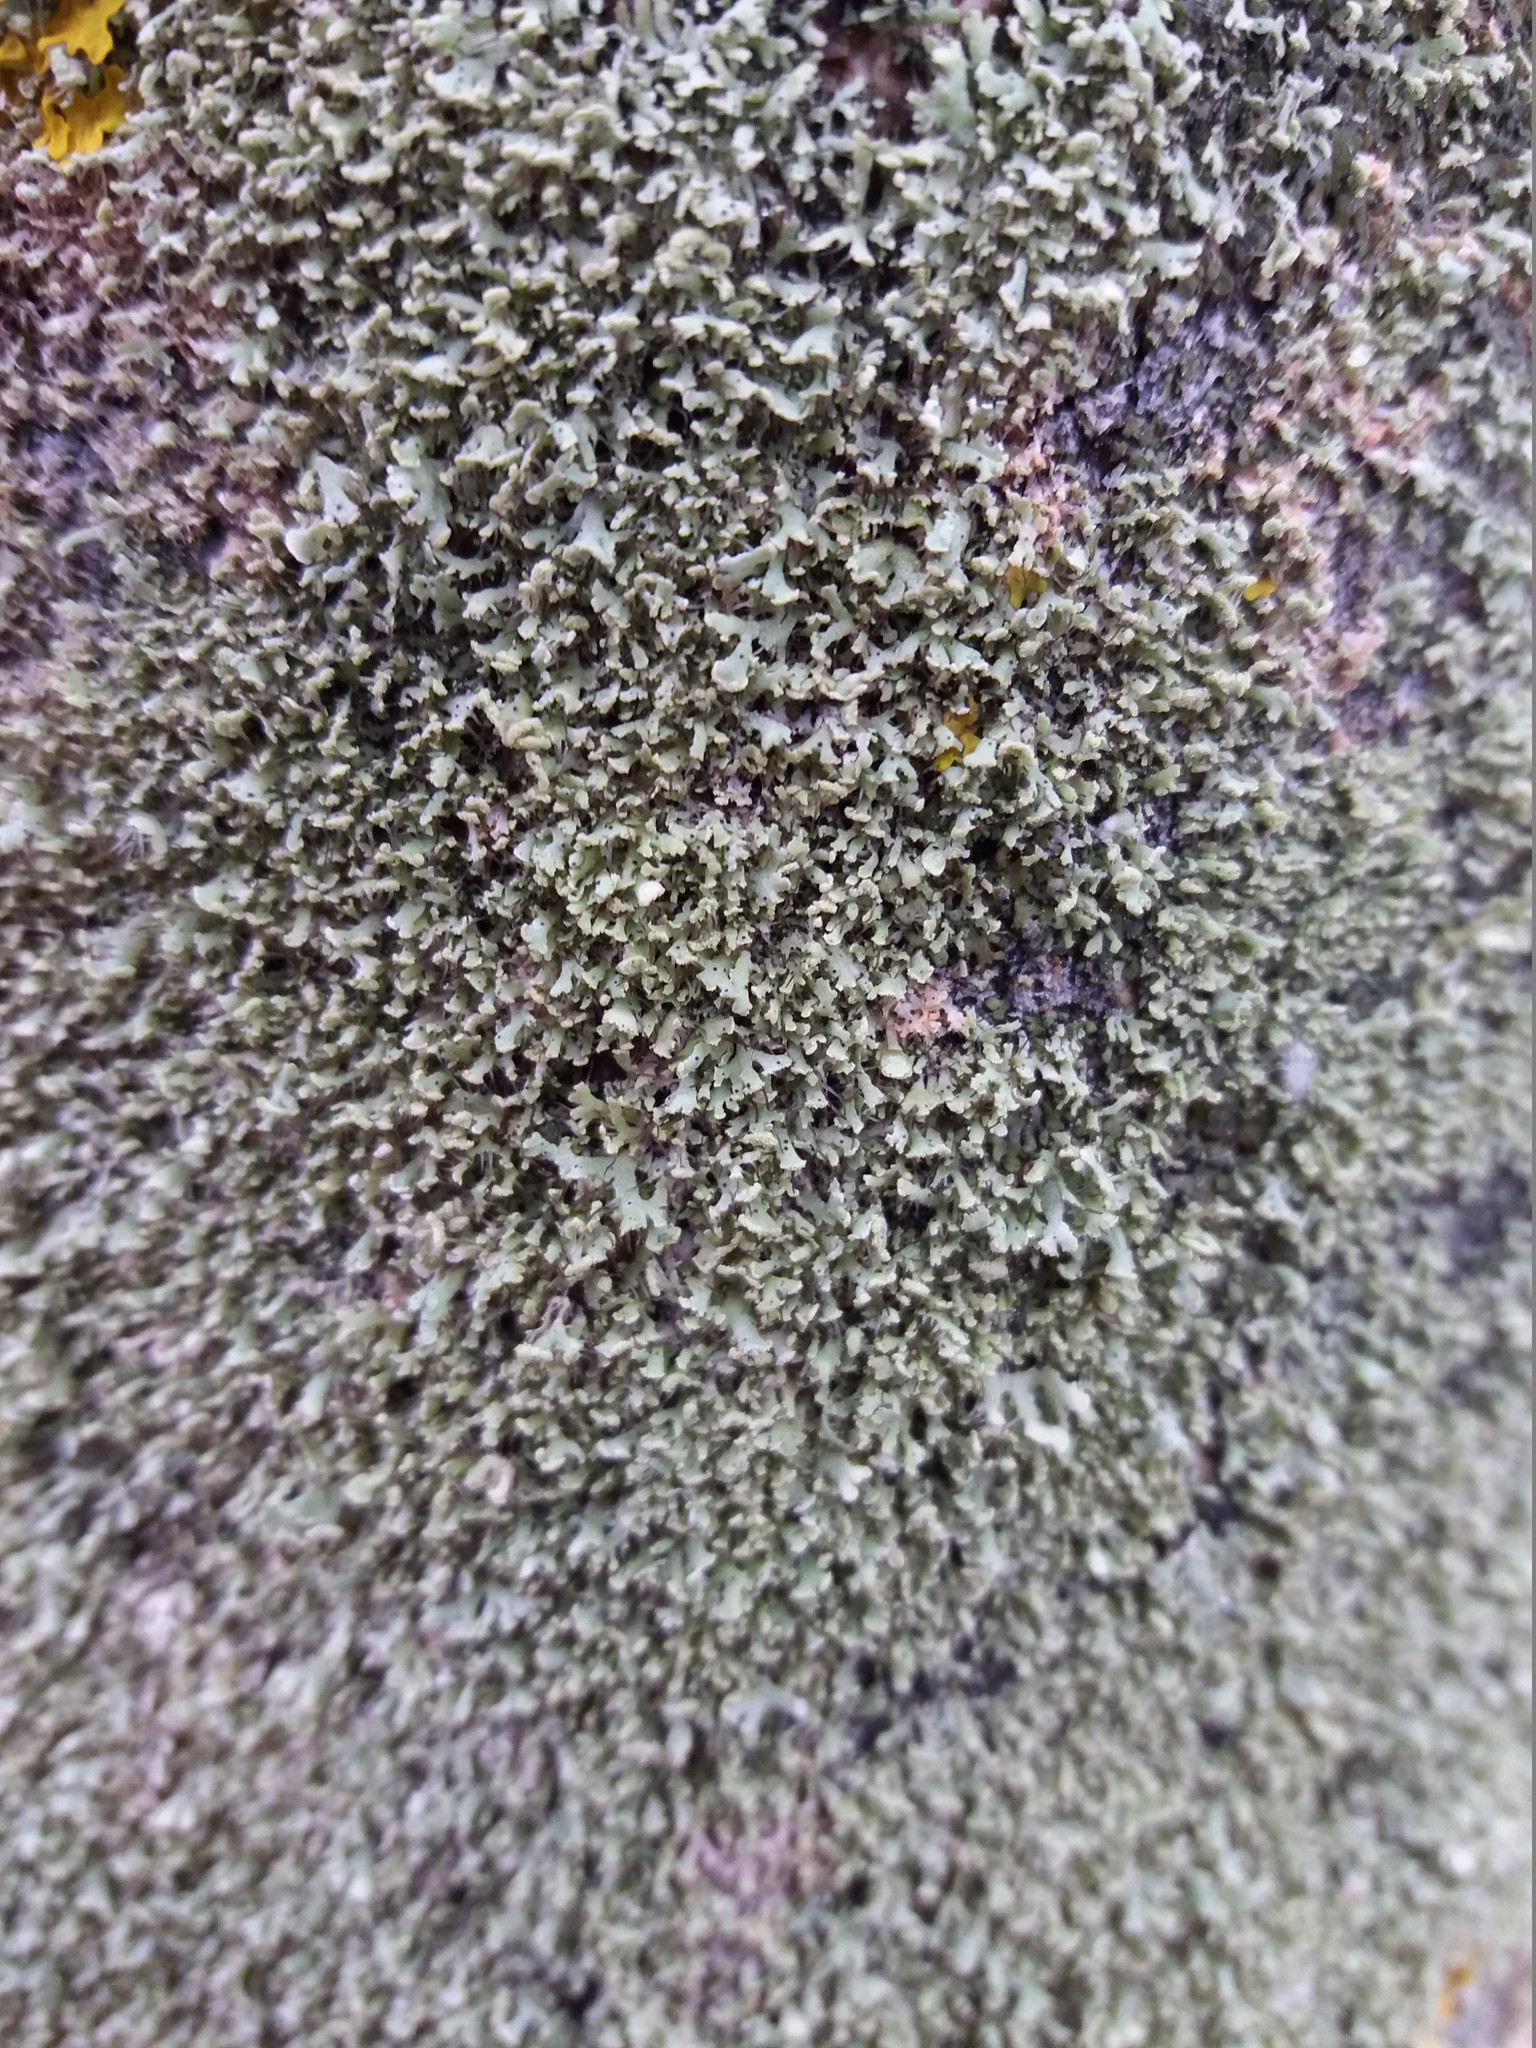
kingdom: Fungi
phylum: Ascomycota
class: Lecanoromycetes
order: Caliciales
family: Physciaceae
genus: Physcia
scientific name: Physcia tenella
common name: Fringed rosette lichen
